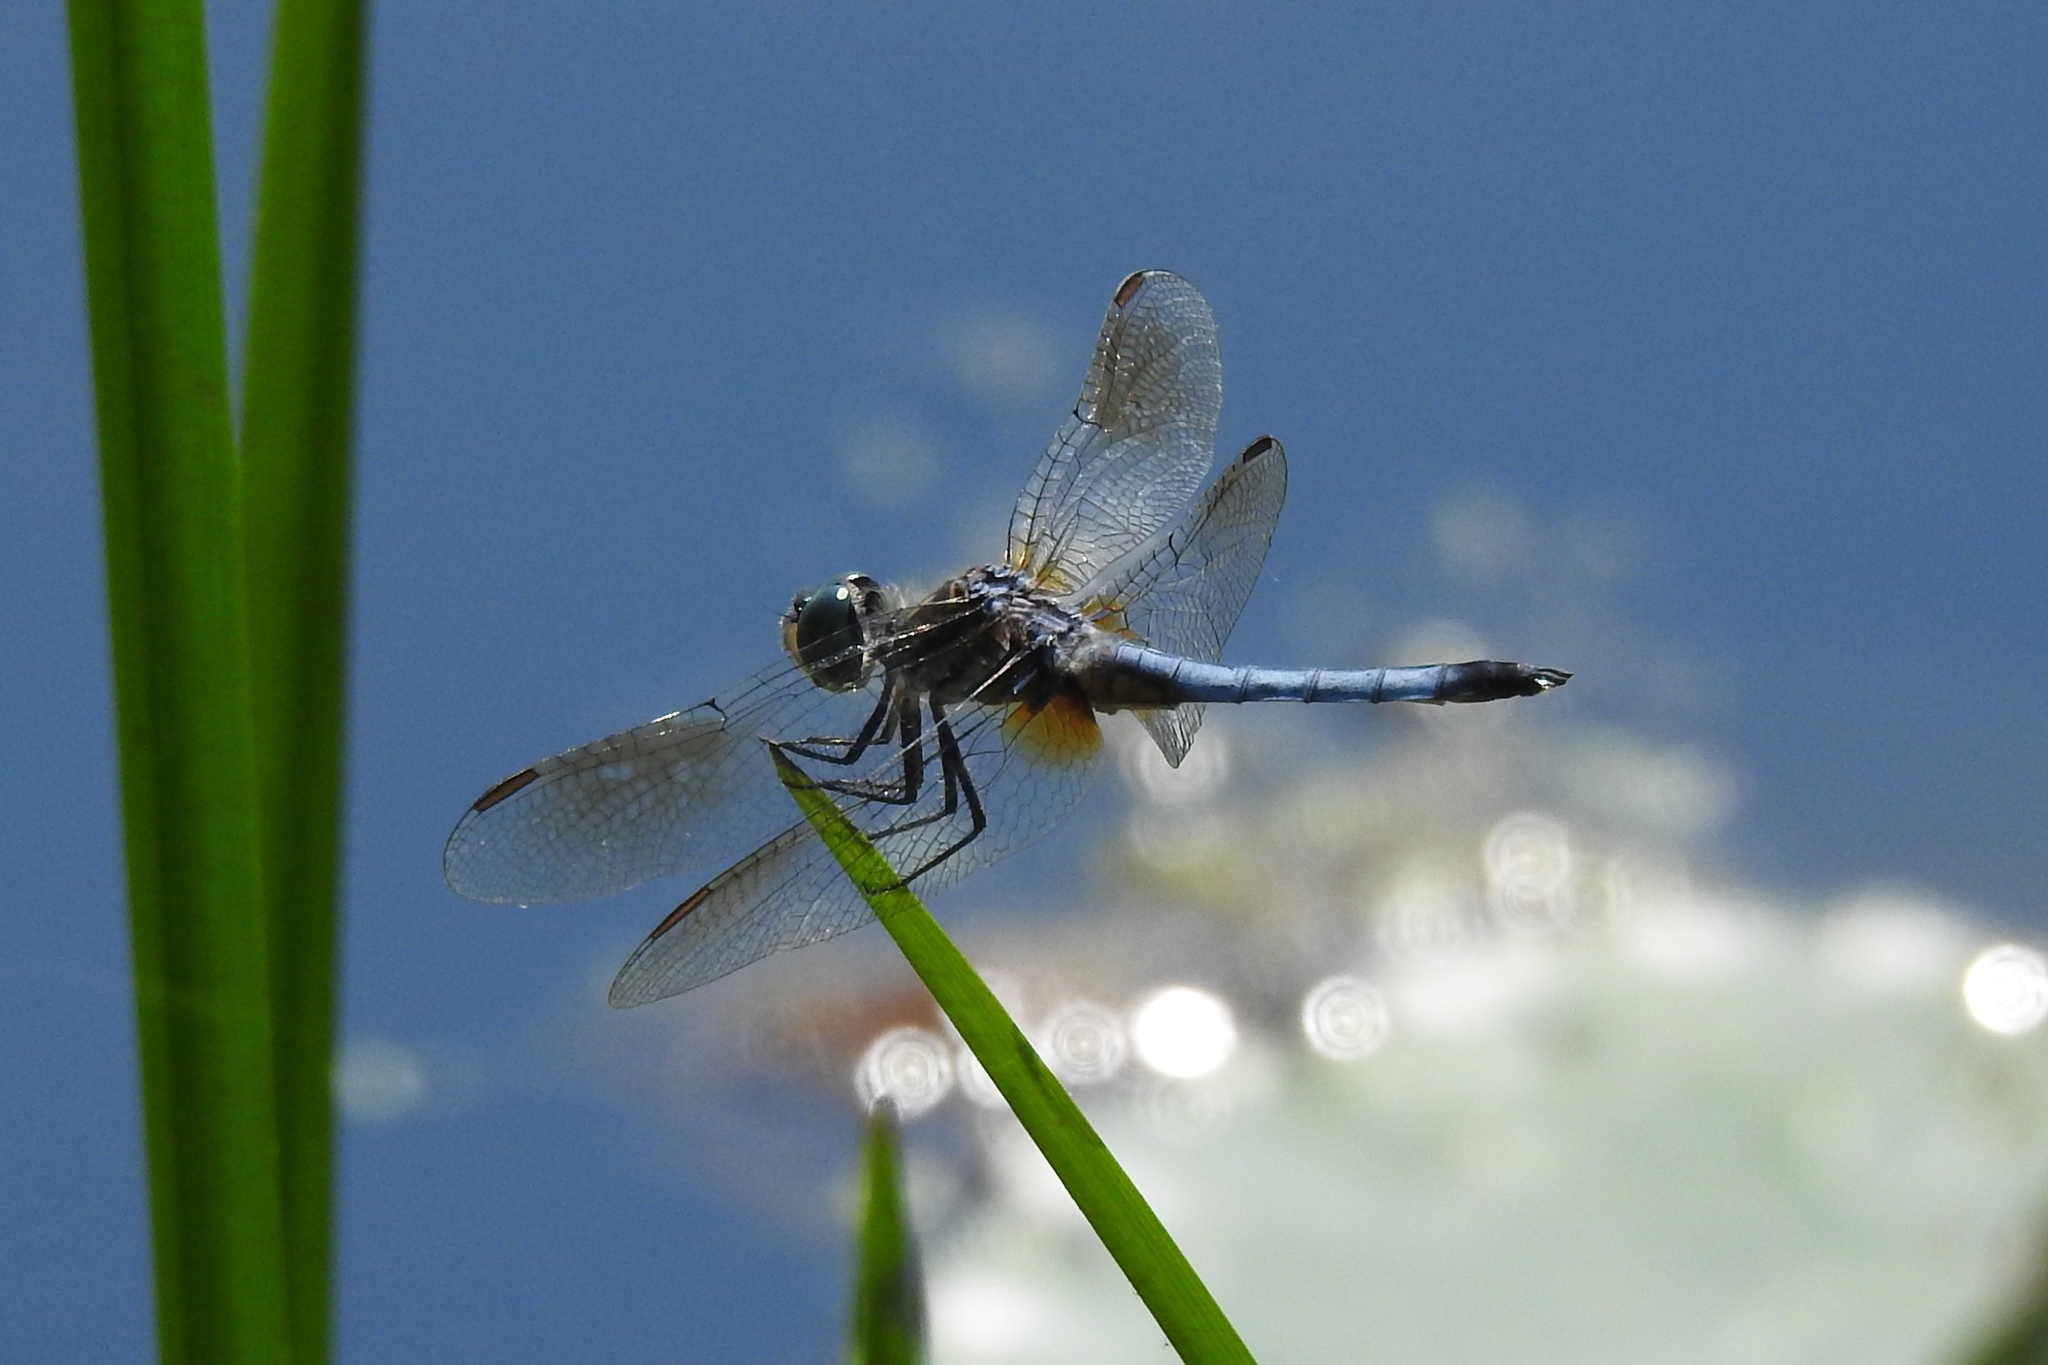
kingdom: Animalia
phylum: Arthropoda
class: Insecta
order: Odonata
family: Libellulidae
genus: Pachydiplax
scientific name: Pachydiplax longipennis
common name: Blue dasher
